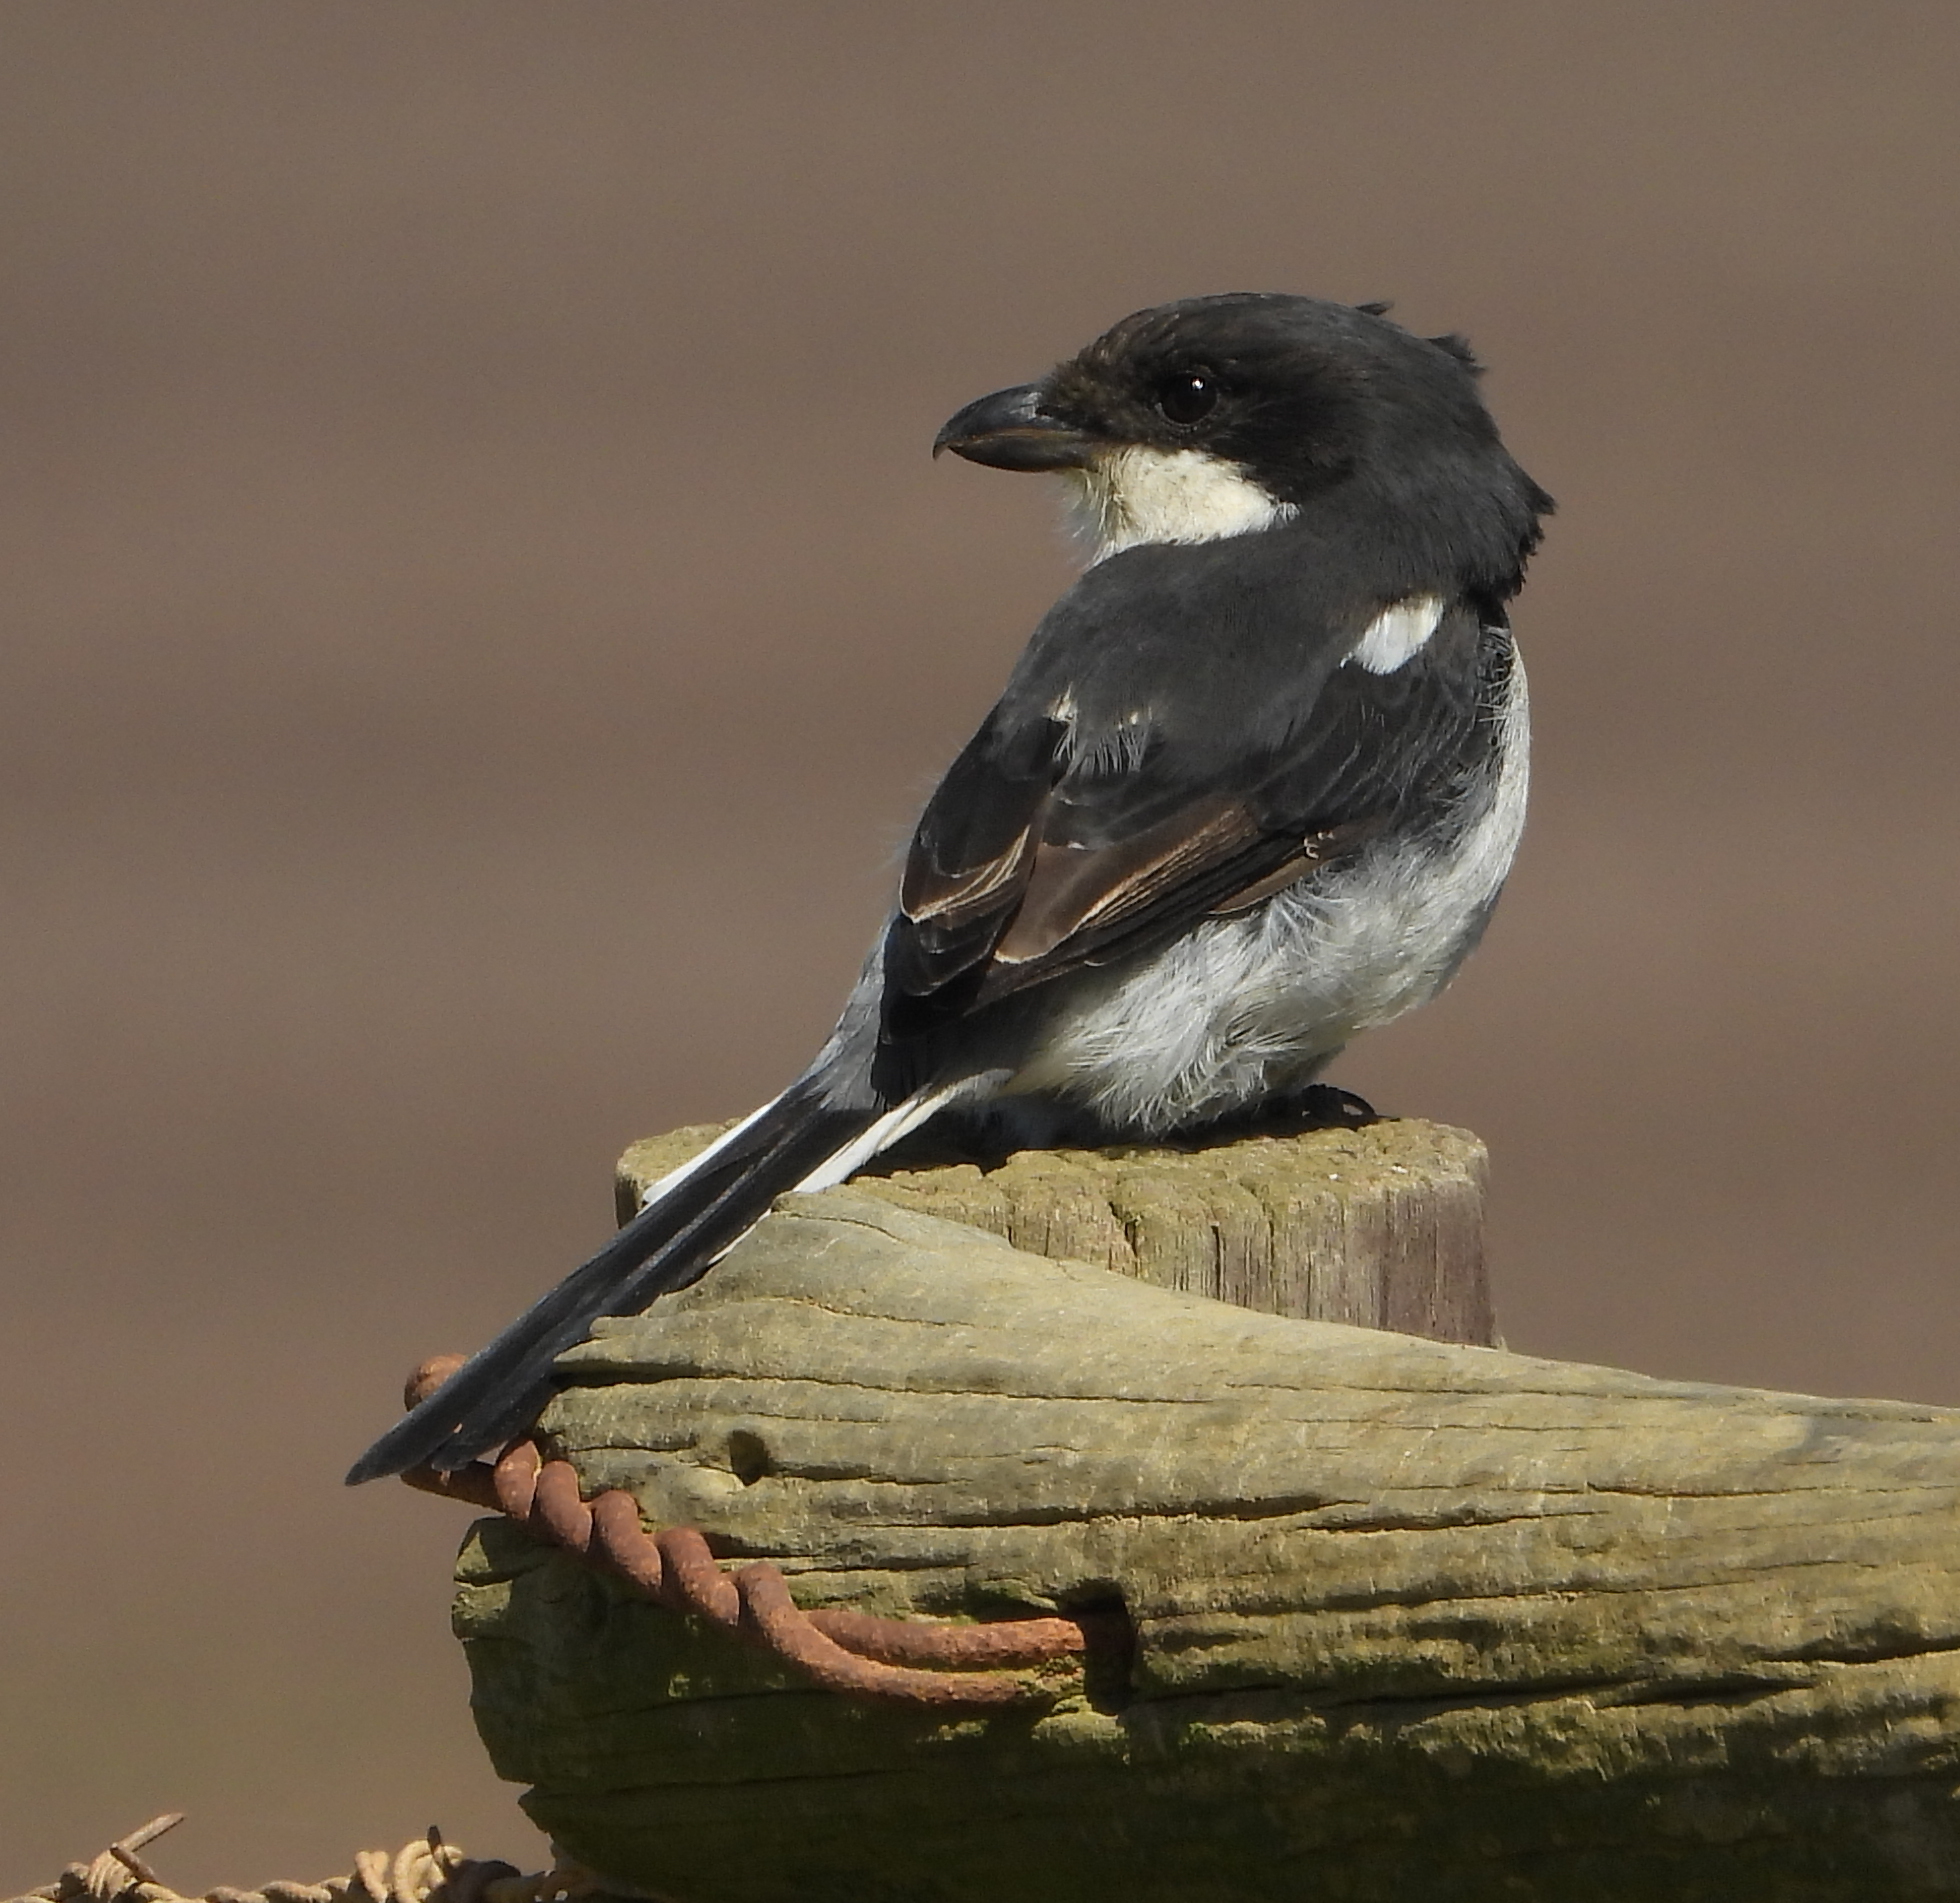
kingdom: Animalia
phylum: Chordata
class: Aves
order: Passeriformes
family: Laniidae
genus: Lanius
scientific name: Lanius collaris
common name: Southern fiscal
